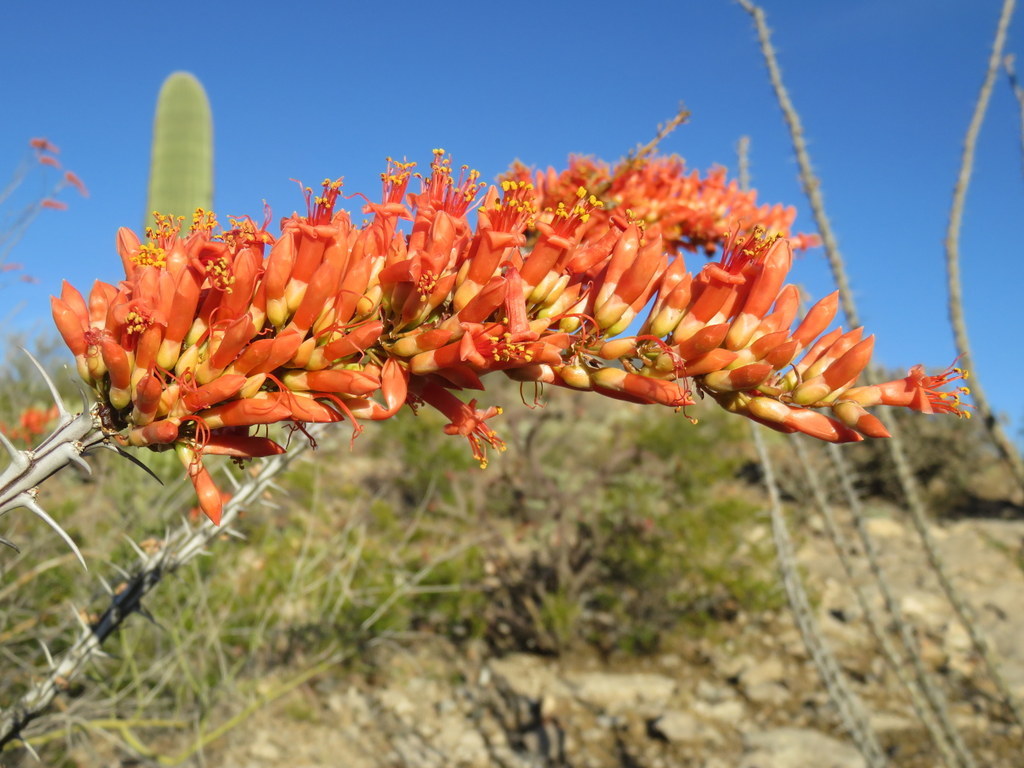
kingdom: Plantae
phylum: Tracheophyta
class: Magnoliopsida
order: Ericales
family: Fouquieriaceae
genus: Fouquieria
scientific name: Fouquieria splendens
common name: Vine-cactus
